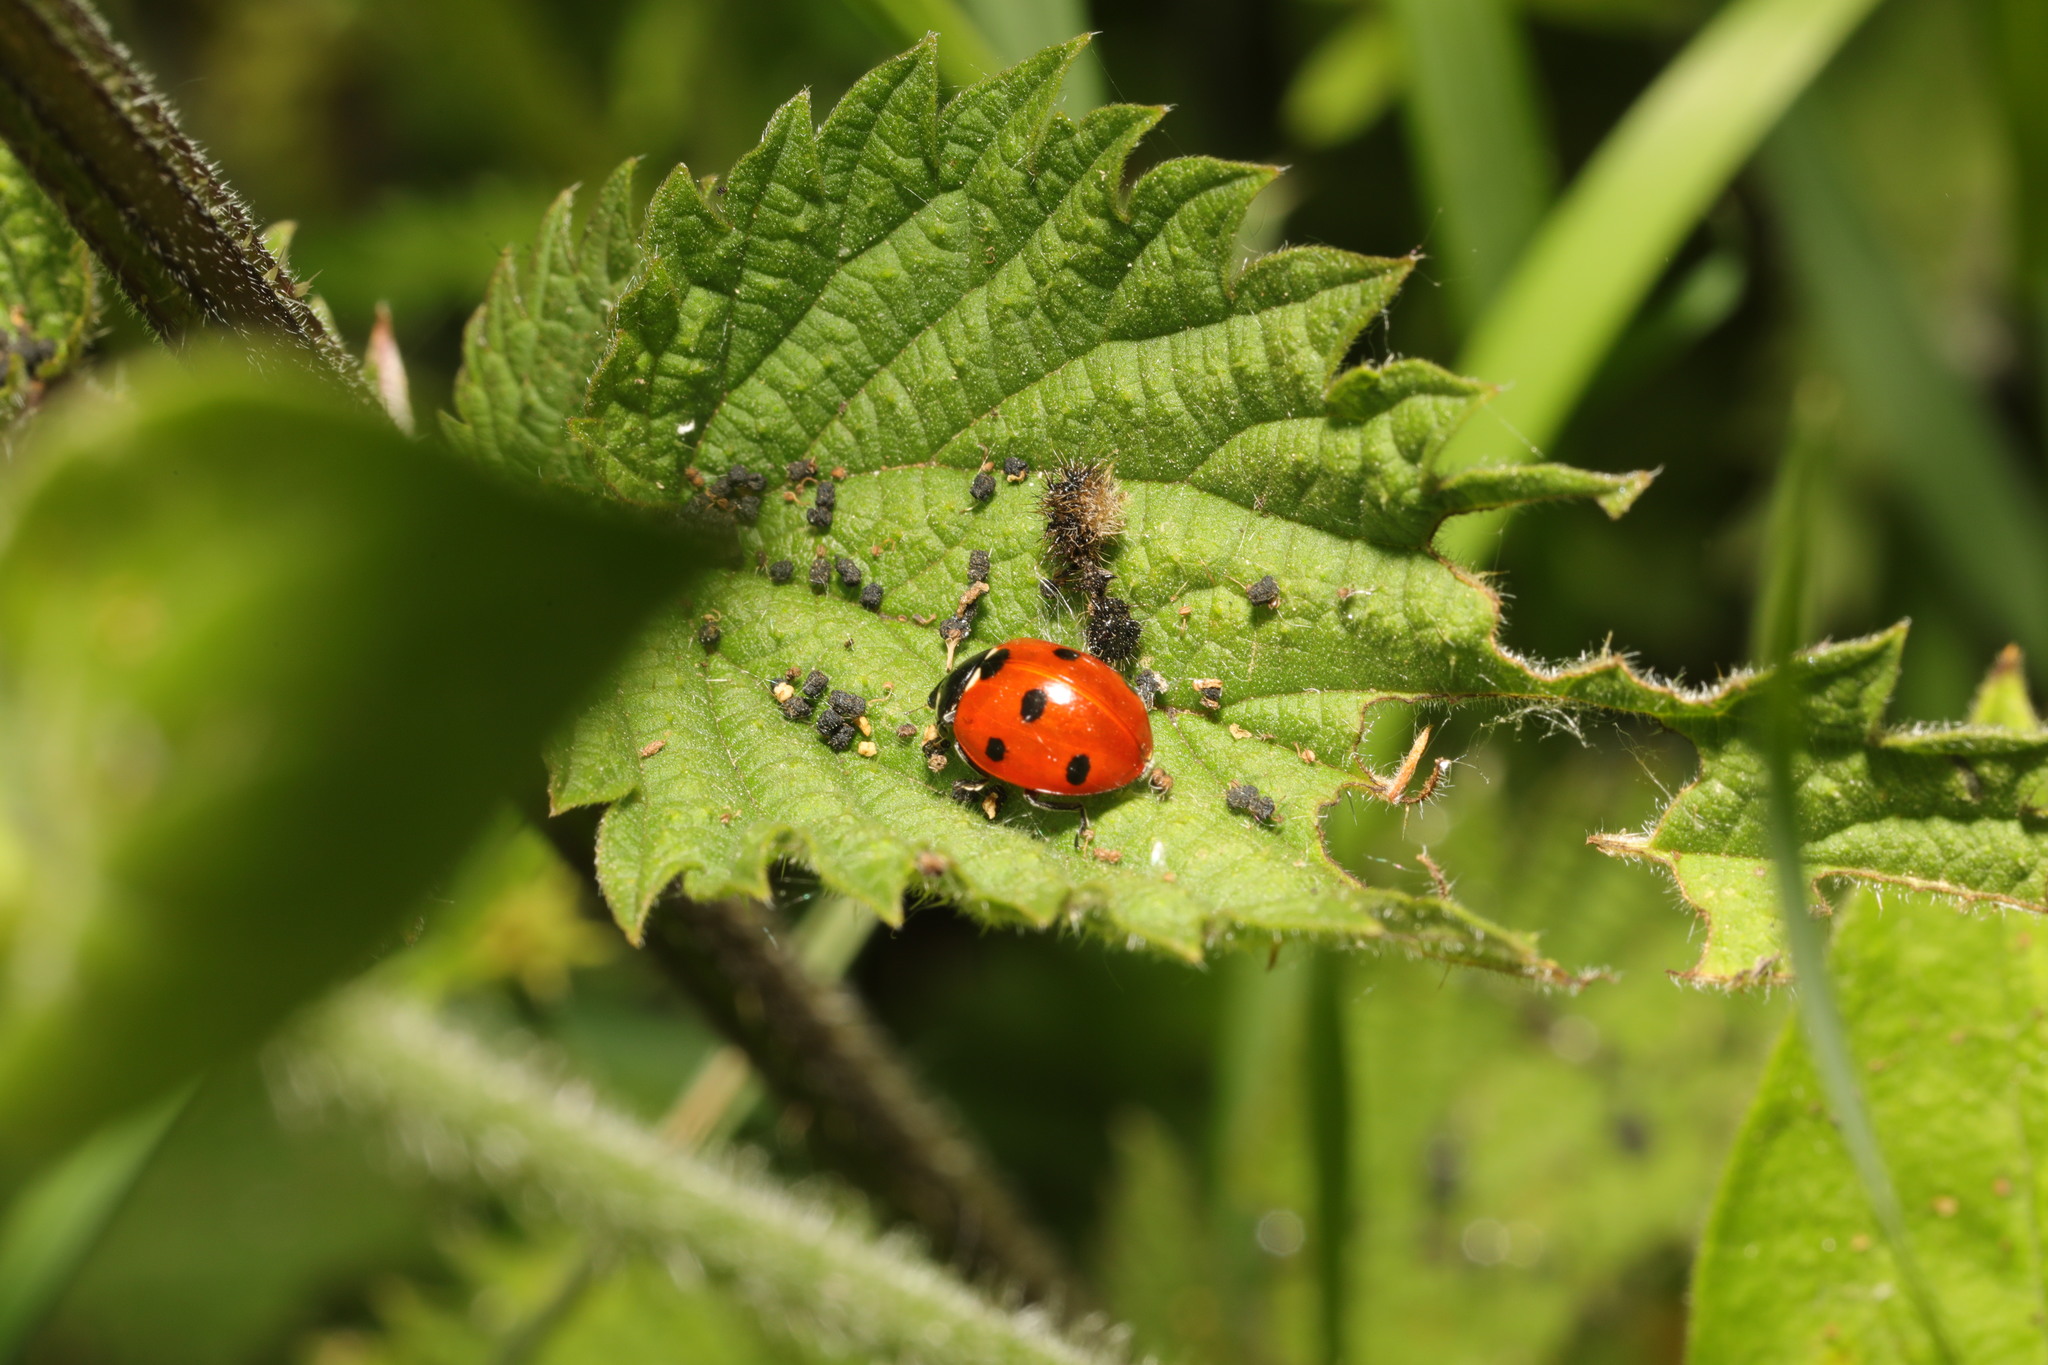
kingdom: Animalia
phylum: Arthropoda
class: Insecta
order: Coleoptera
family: Coccinellidae
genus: Coccinella
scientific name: Coccinella septempunctata
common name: Sevenspotted lady beetle
